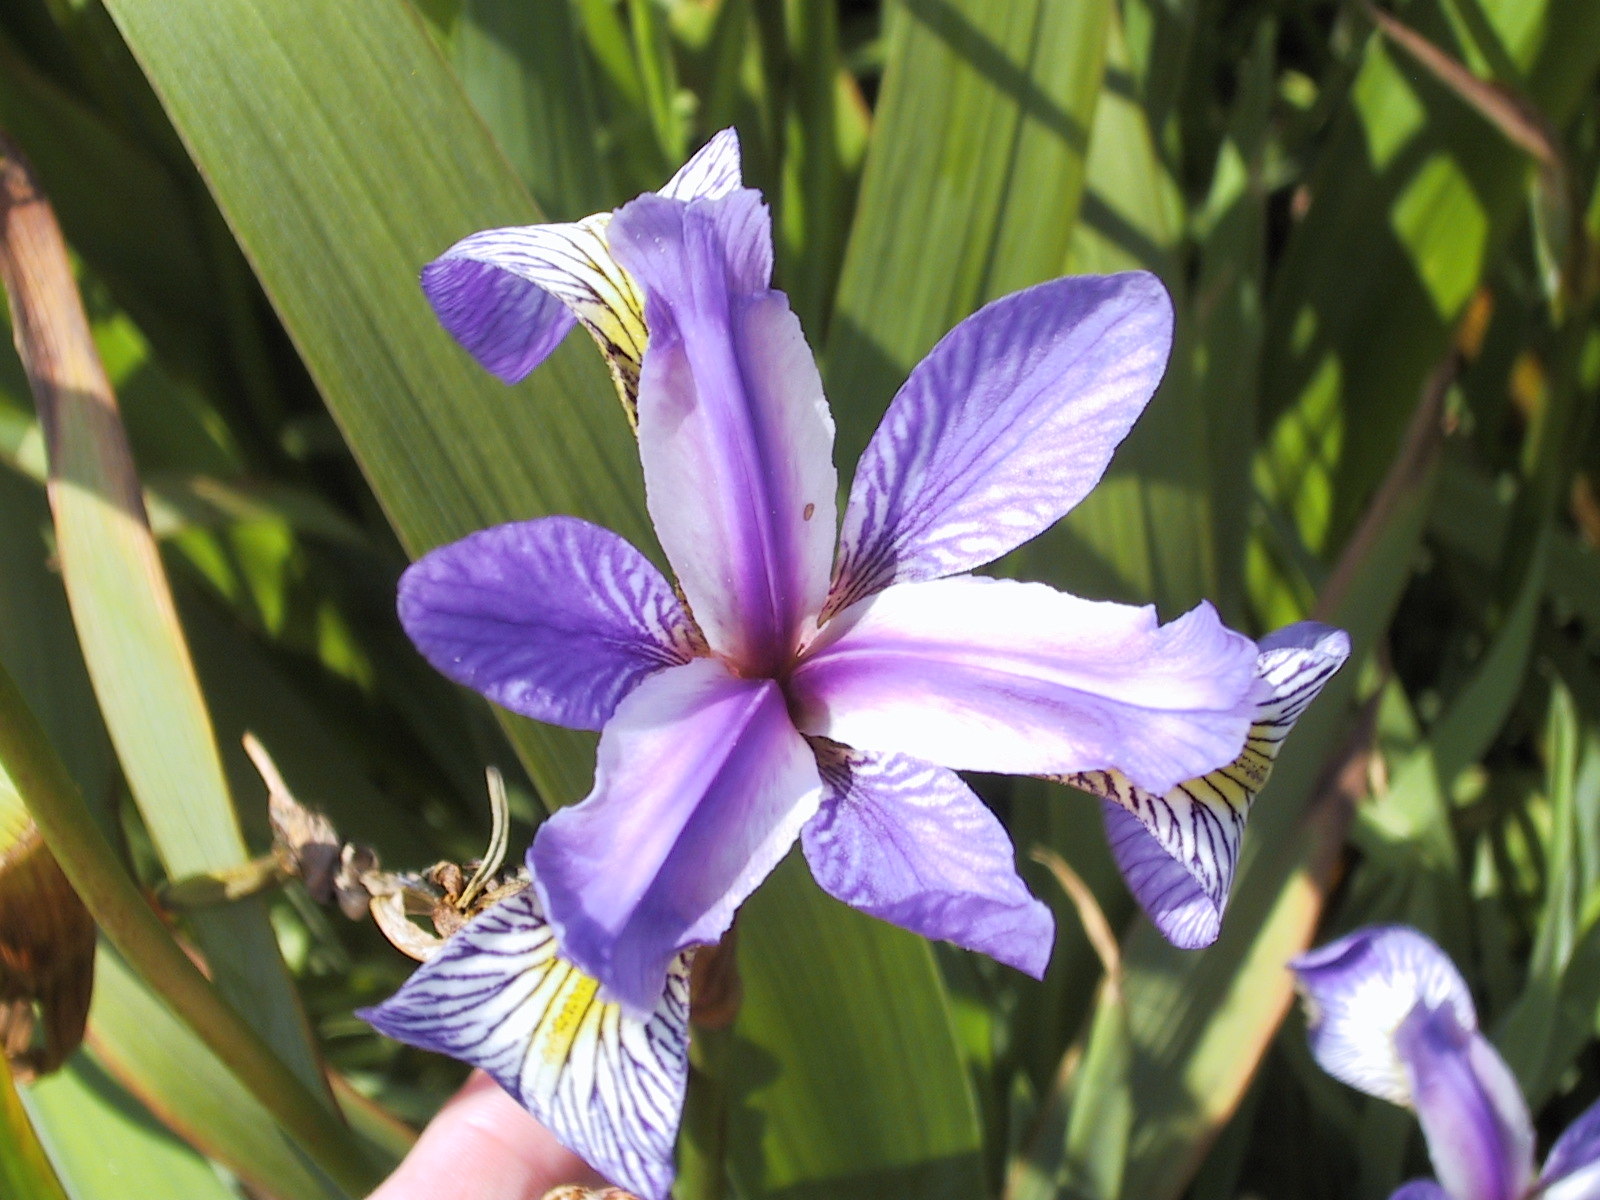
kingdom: Plantae
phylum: Tracheophyta
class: Liliopsida
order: Asparagales
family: Iridaceae
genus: Iris
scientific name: Iris versicolor
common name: Purple iris
